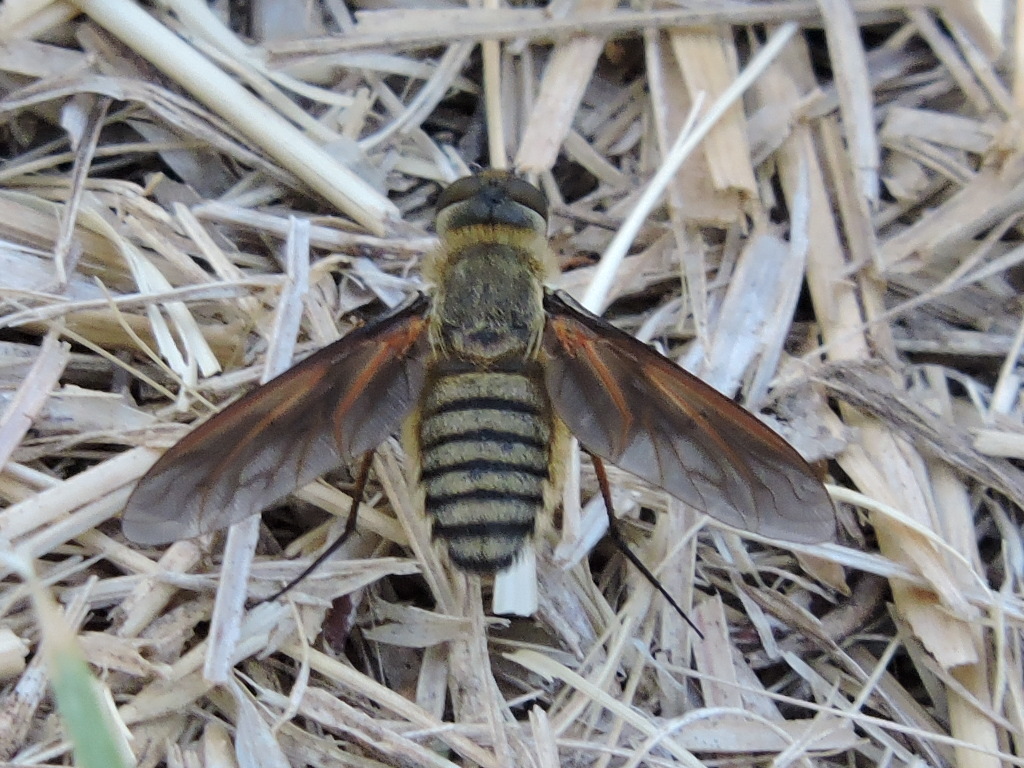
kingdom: Animalia
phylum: Arthropoda
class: Insecta
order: Diptera
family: Bombyliidae
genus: Poecilanthrax
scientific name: Poecilanthrax lucifer
